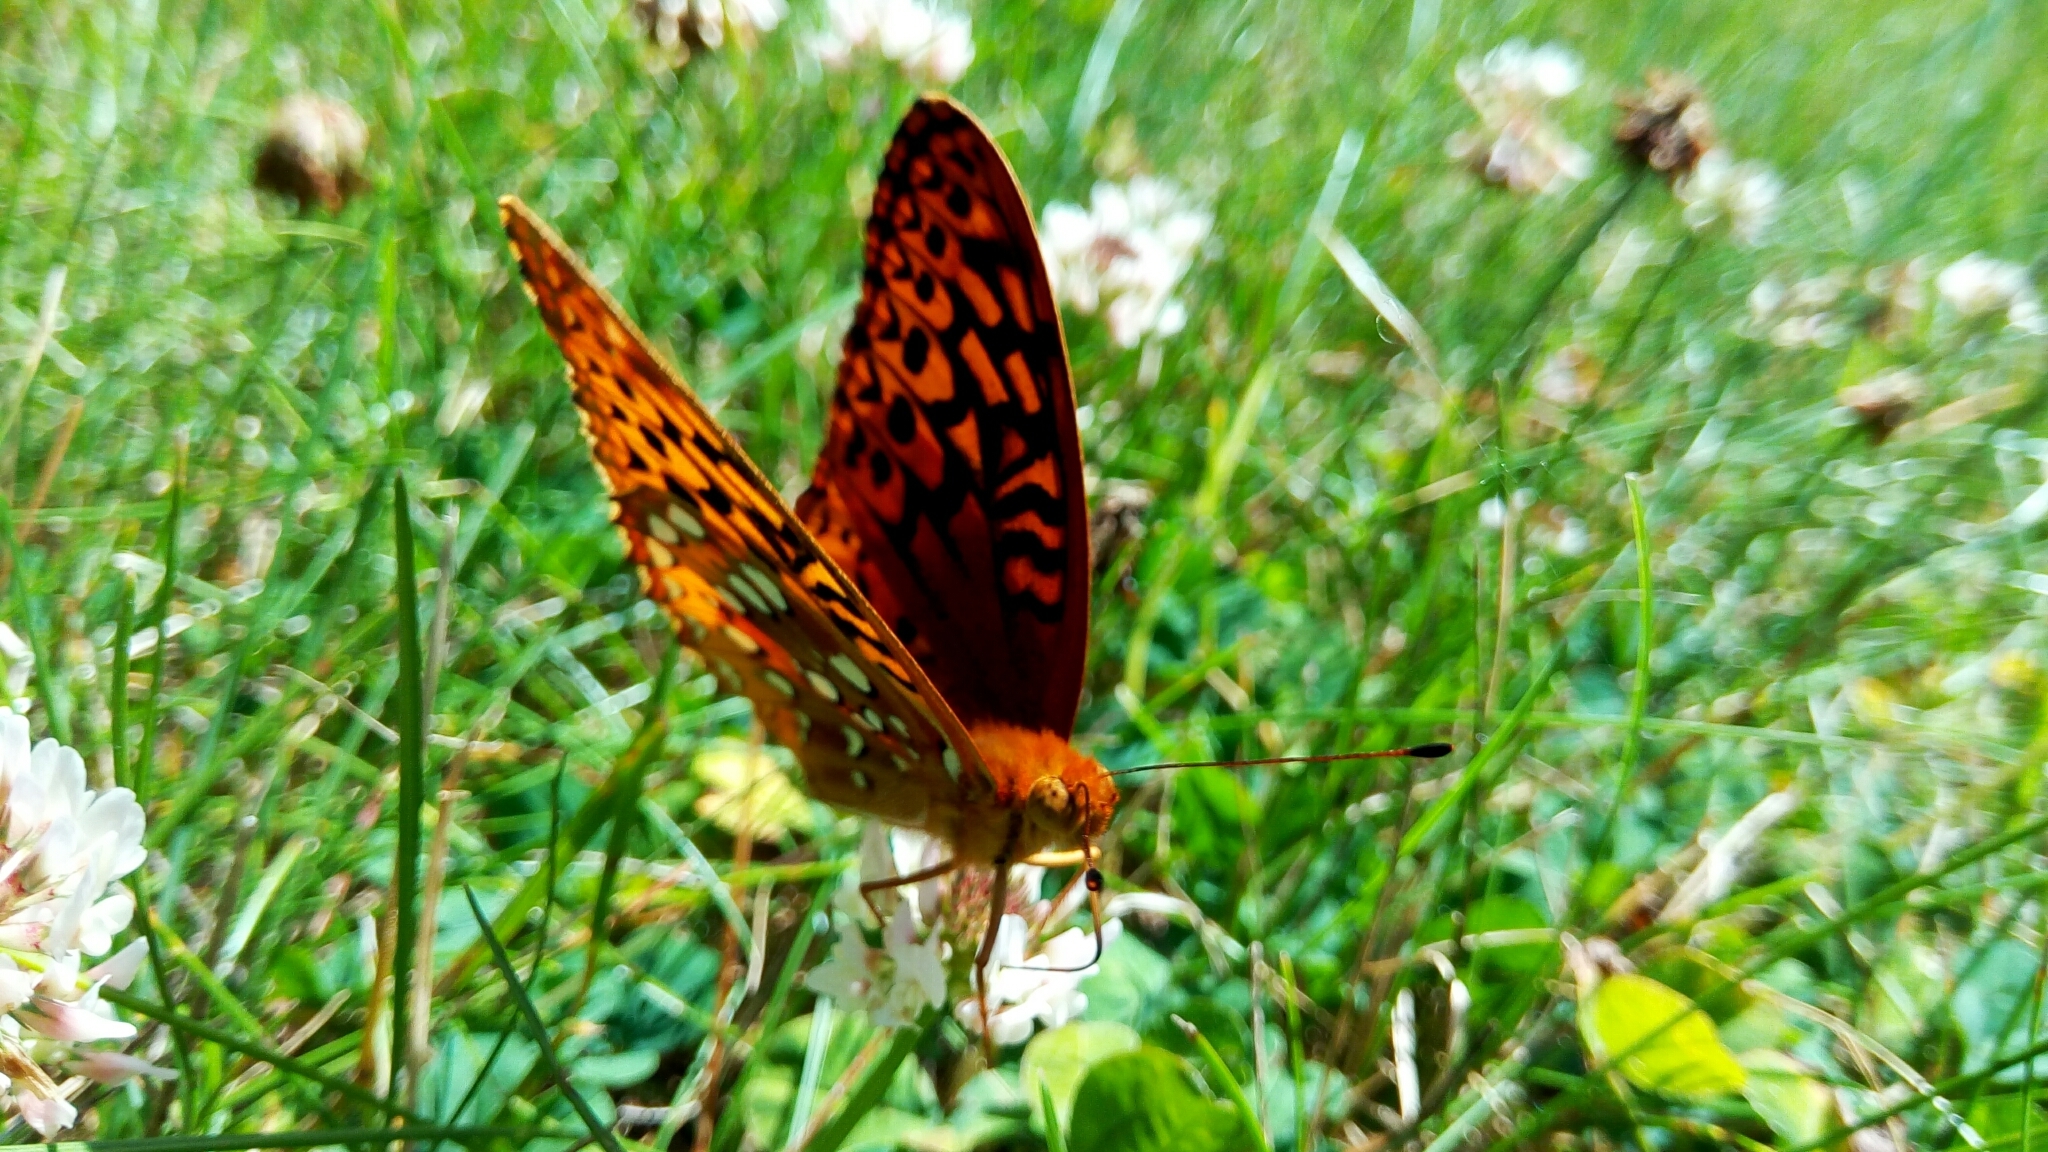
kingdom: Animalia
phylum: Arthropoda
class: Insecta
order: Lepidoptera
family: Nymphalidae
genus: Speyeria
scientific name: Speyeria cybele
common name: Great spangled fritillary
